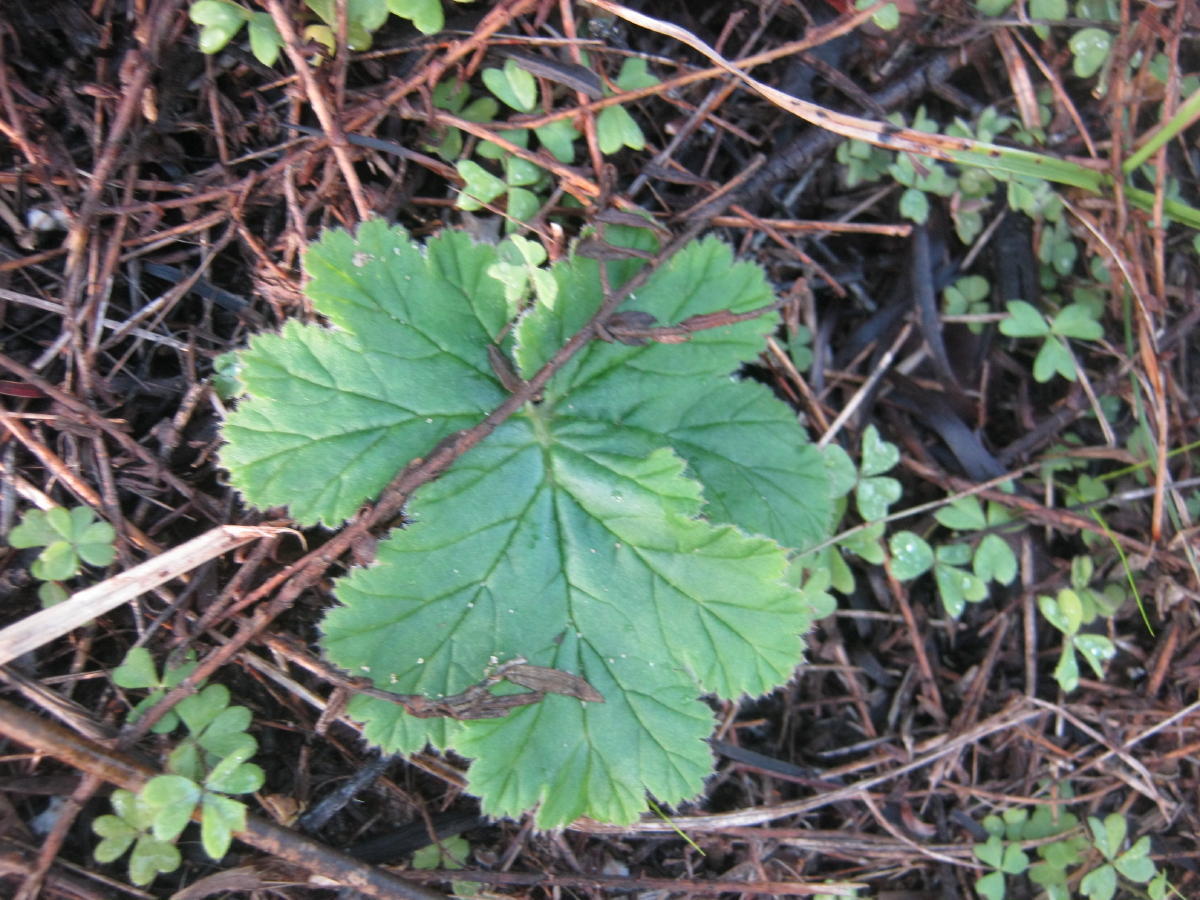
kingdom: Plantae
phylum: Tracheophyta
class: Magnoliopsida
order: Geraniales
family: Geraniaceae
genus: Pelargonium
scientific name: Pelargonium lobatum
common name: Vine-leaf pelargonium
